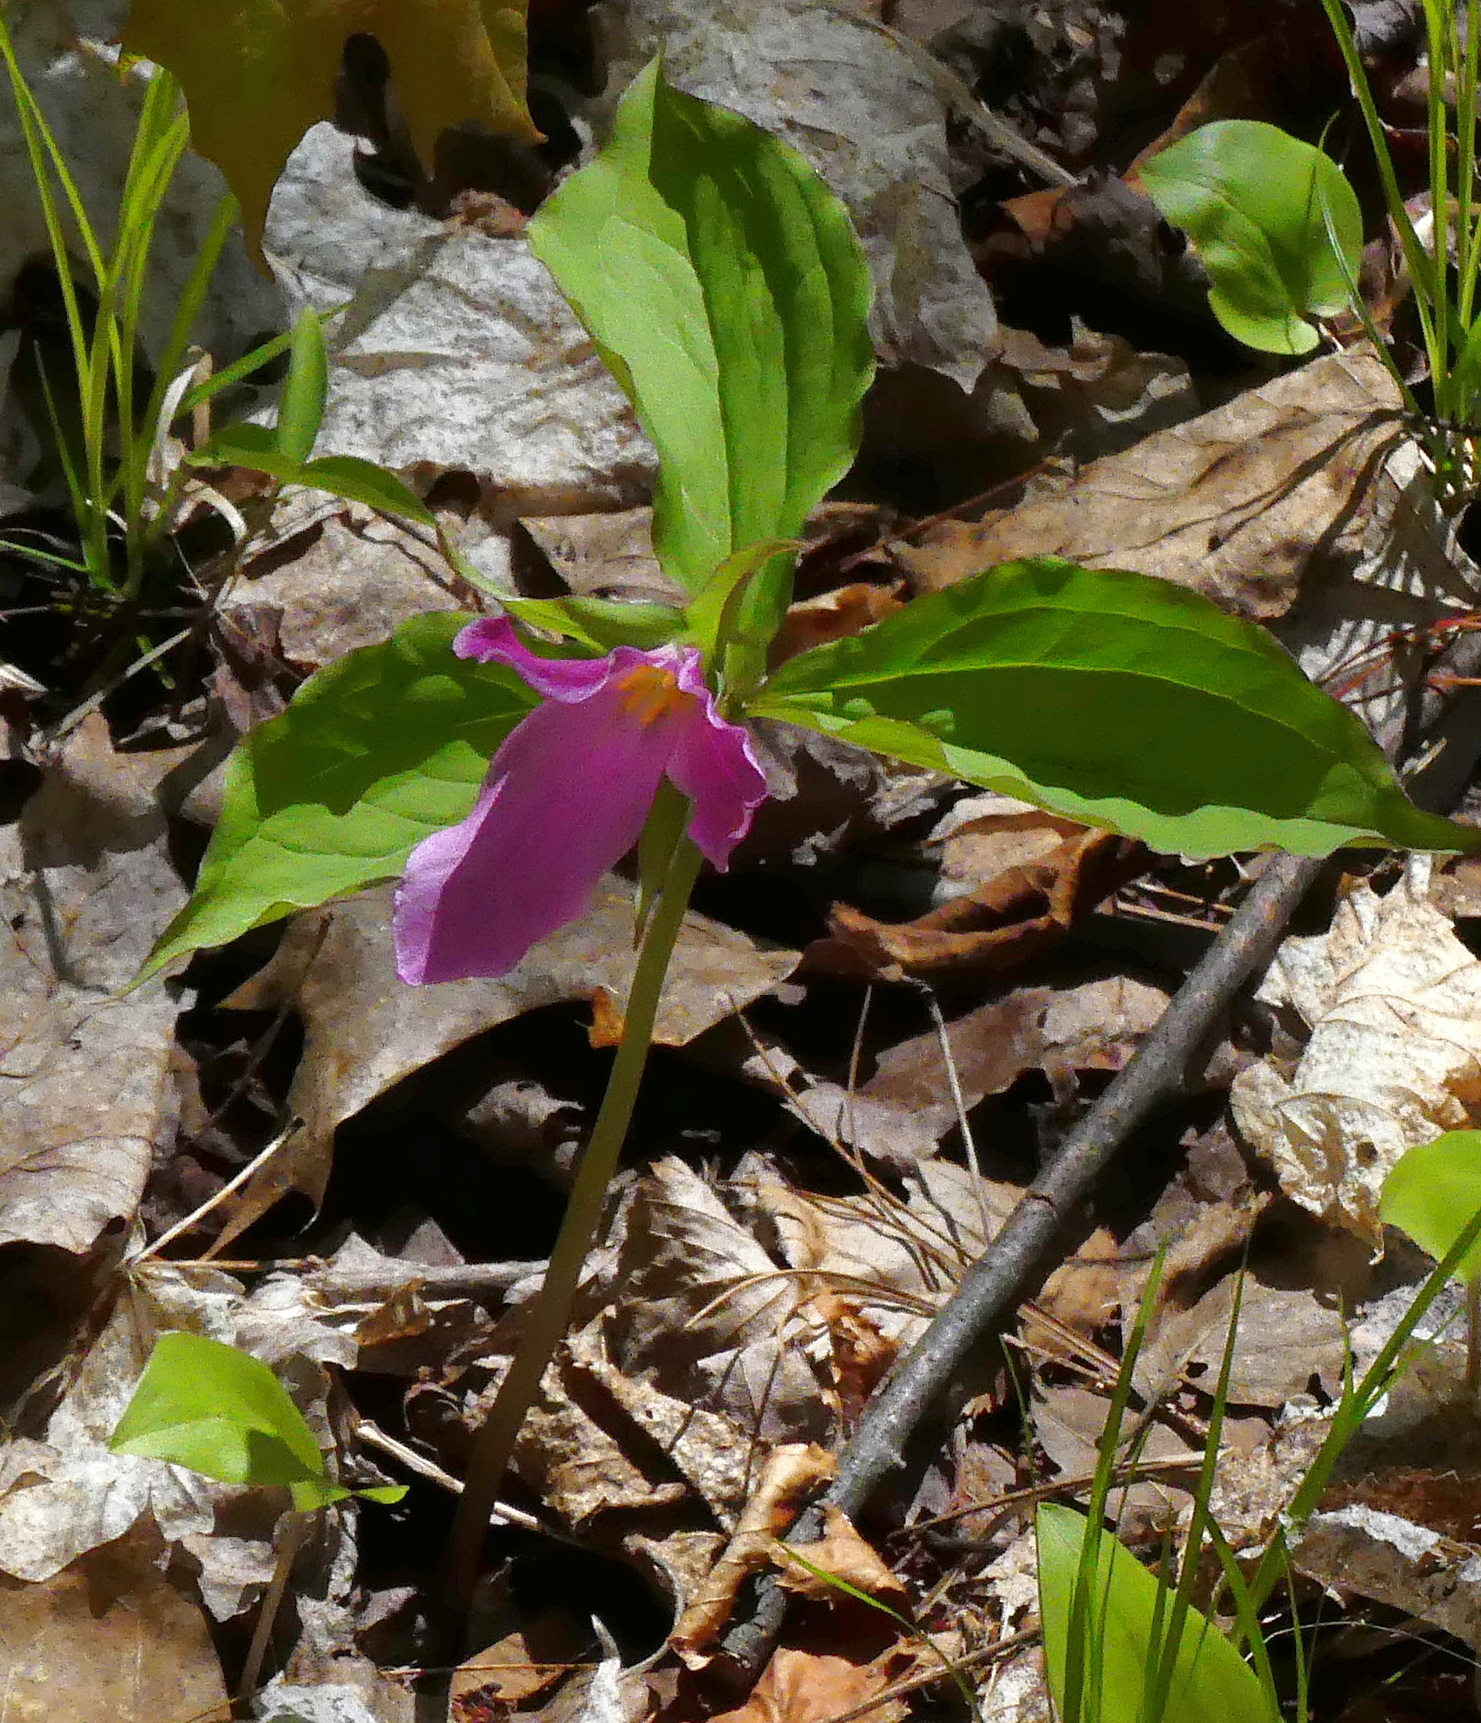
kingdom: Plantae
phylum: Tracheophyta
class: Liliopsida
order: Liliales
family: Melanthiaceae
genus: Trillium
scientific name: Trillium grandiflorum
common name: Great white trillium
